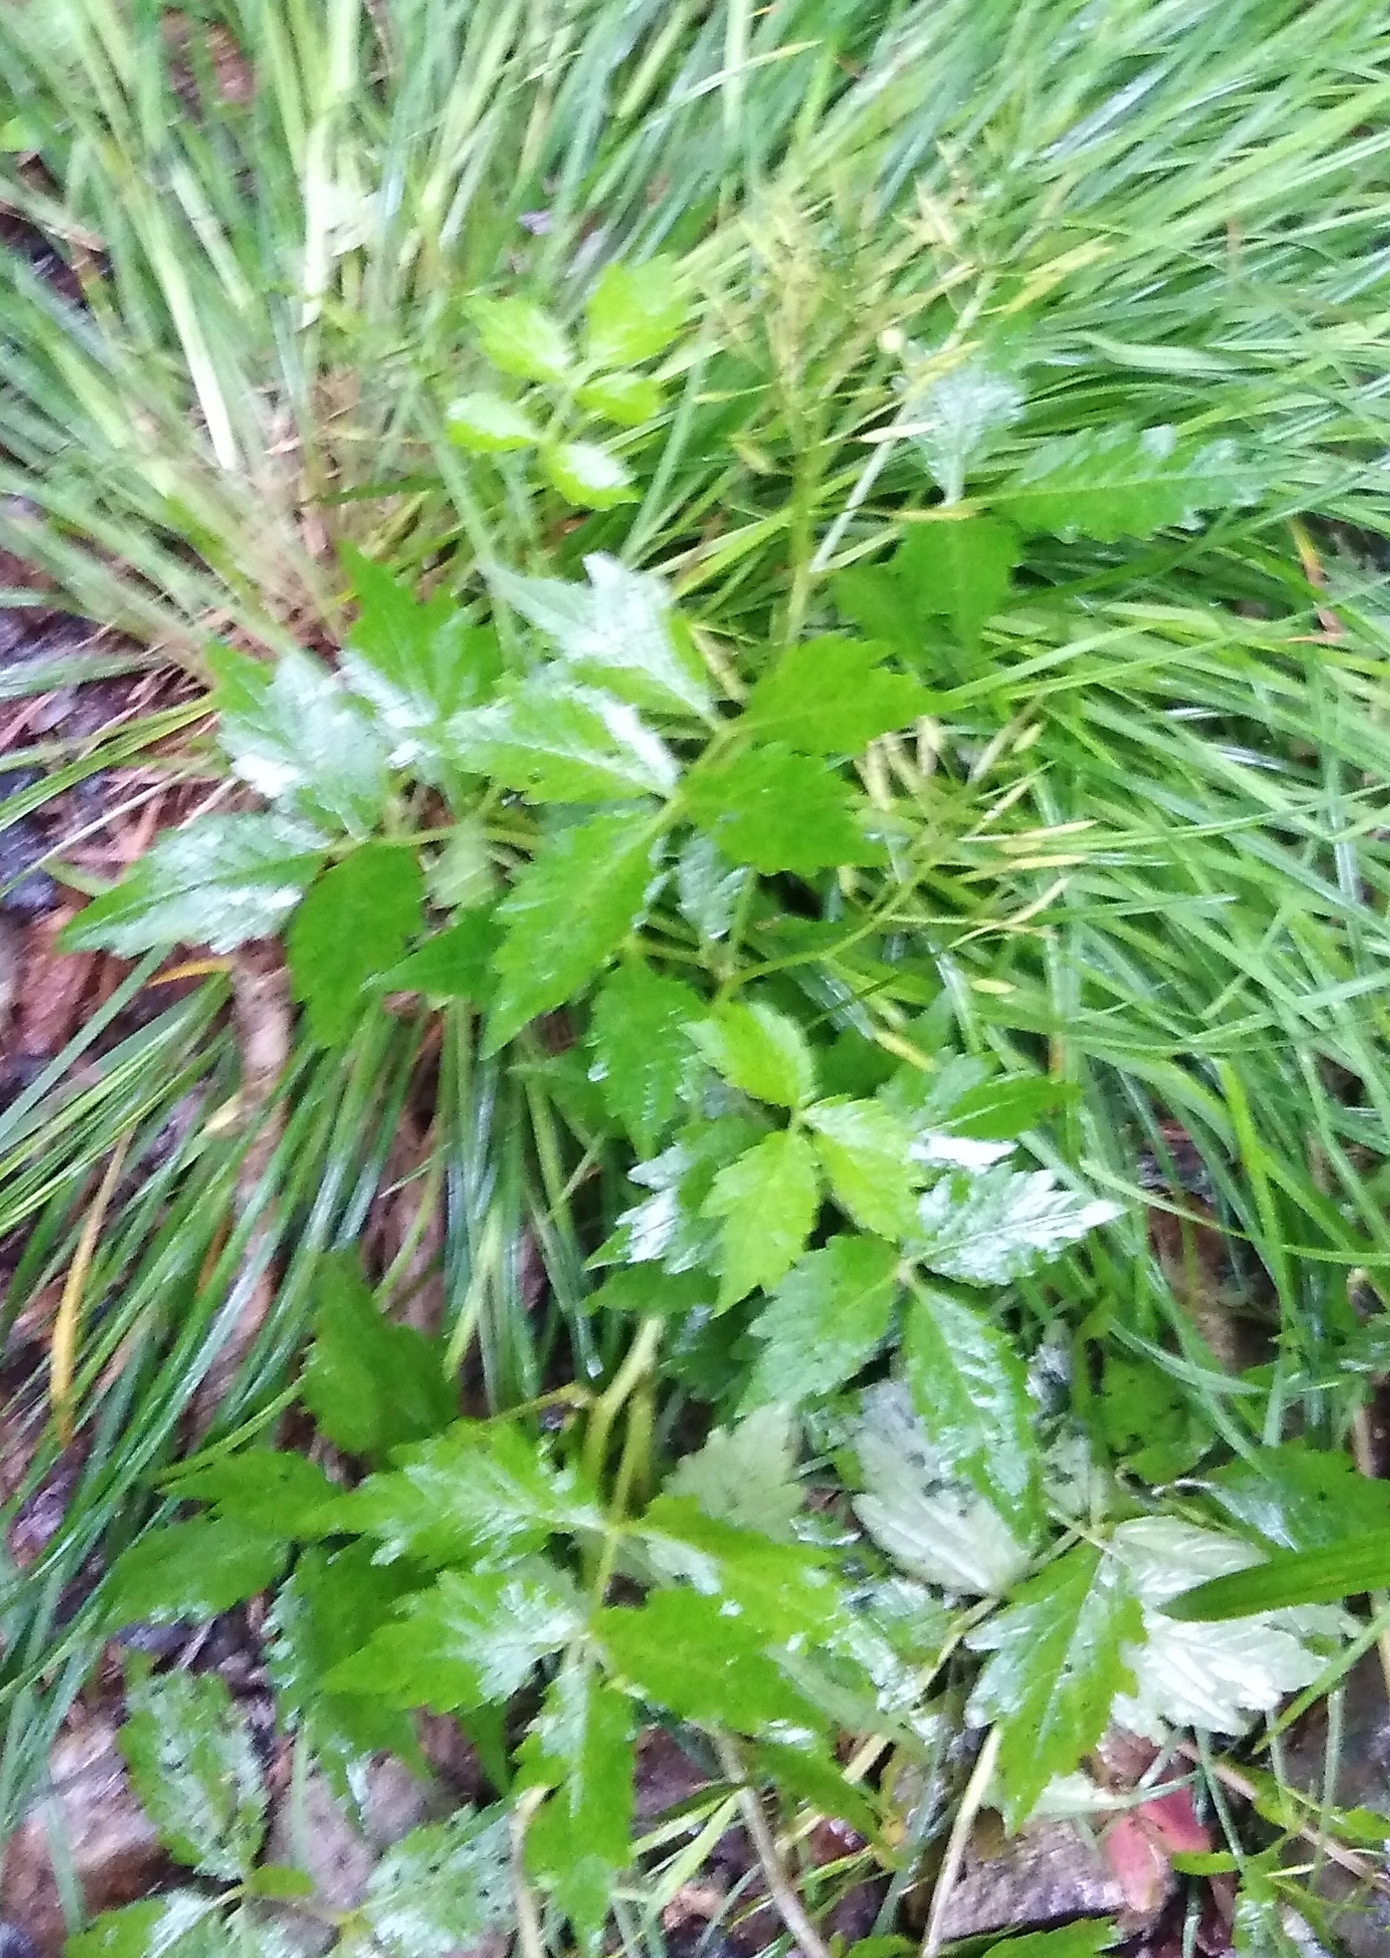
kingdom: Plantae
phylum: Tracheophyta
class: Magnoliopsida
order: Brassicales
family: Brassicaceae
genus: Cardamine
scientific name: Cardamine macrophylla
